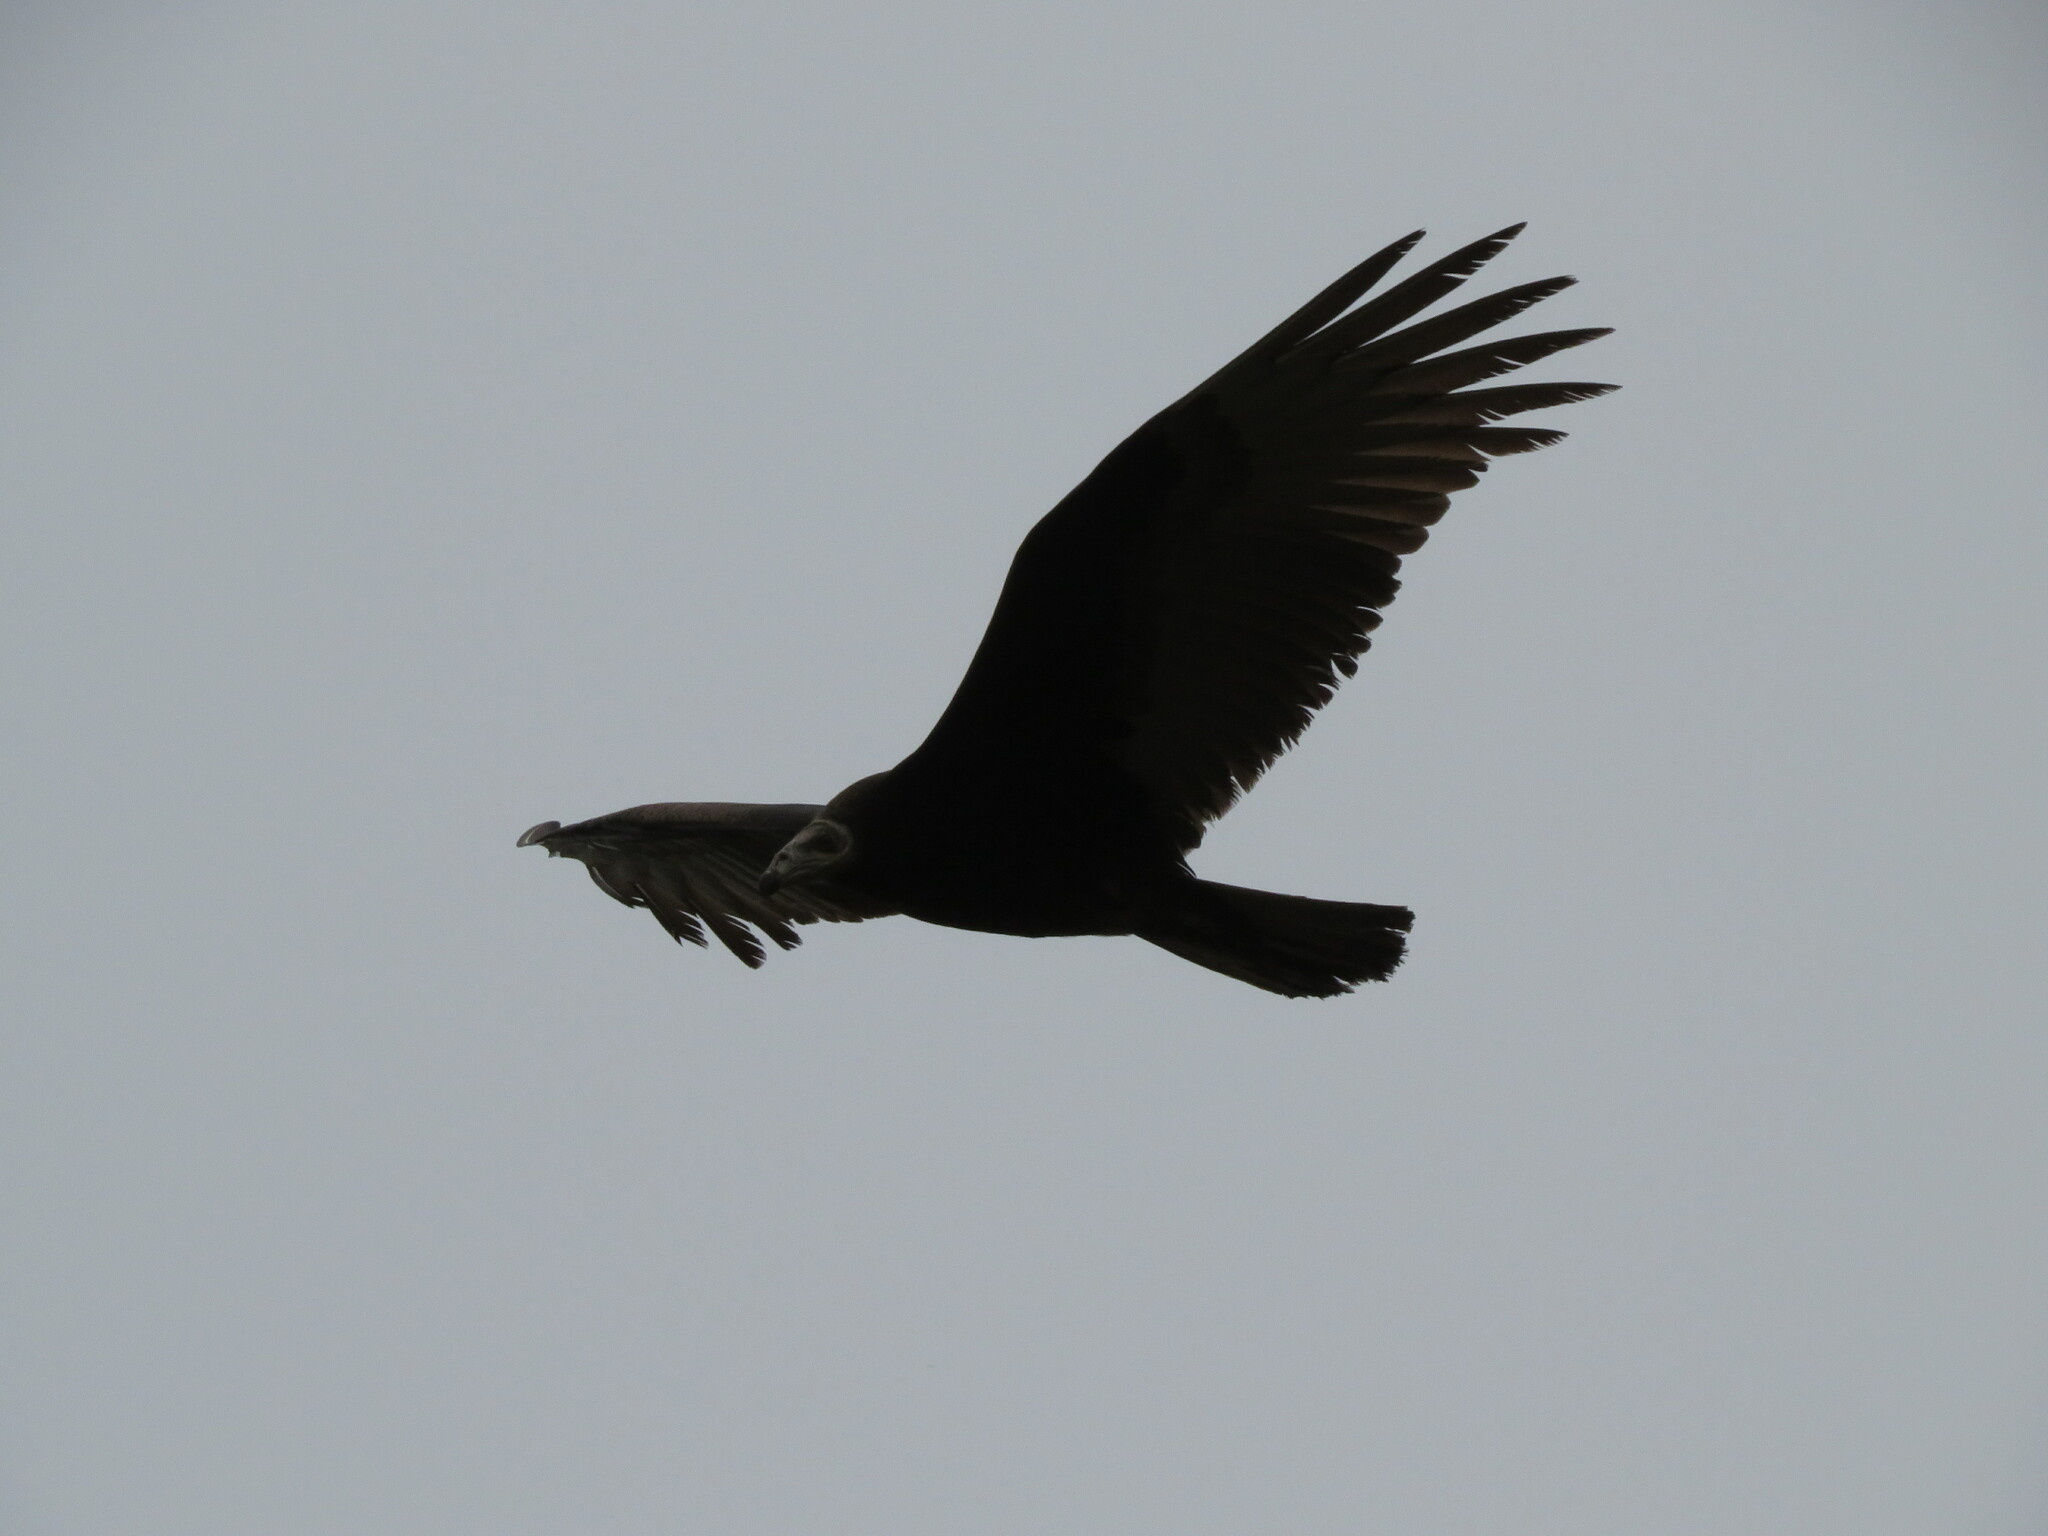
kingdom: Animalia
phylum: Chordata
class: Aves
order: Accipitriformes
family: Cathartidae
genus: Cathartes
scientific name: Cathartes burrovianus
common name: Lesser yellow-headed vulture
